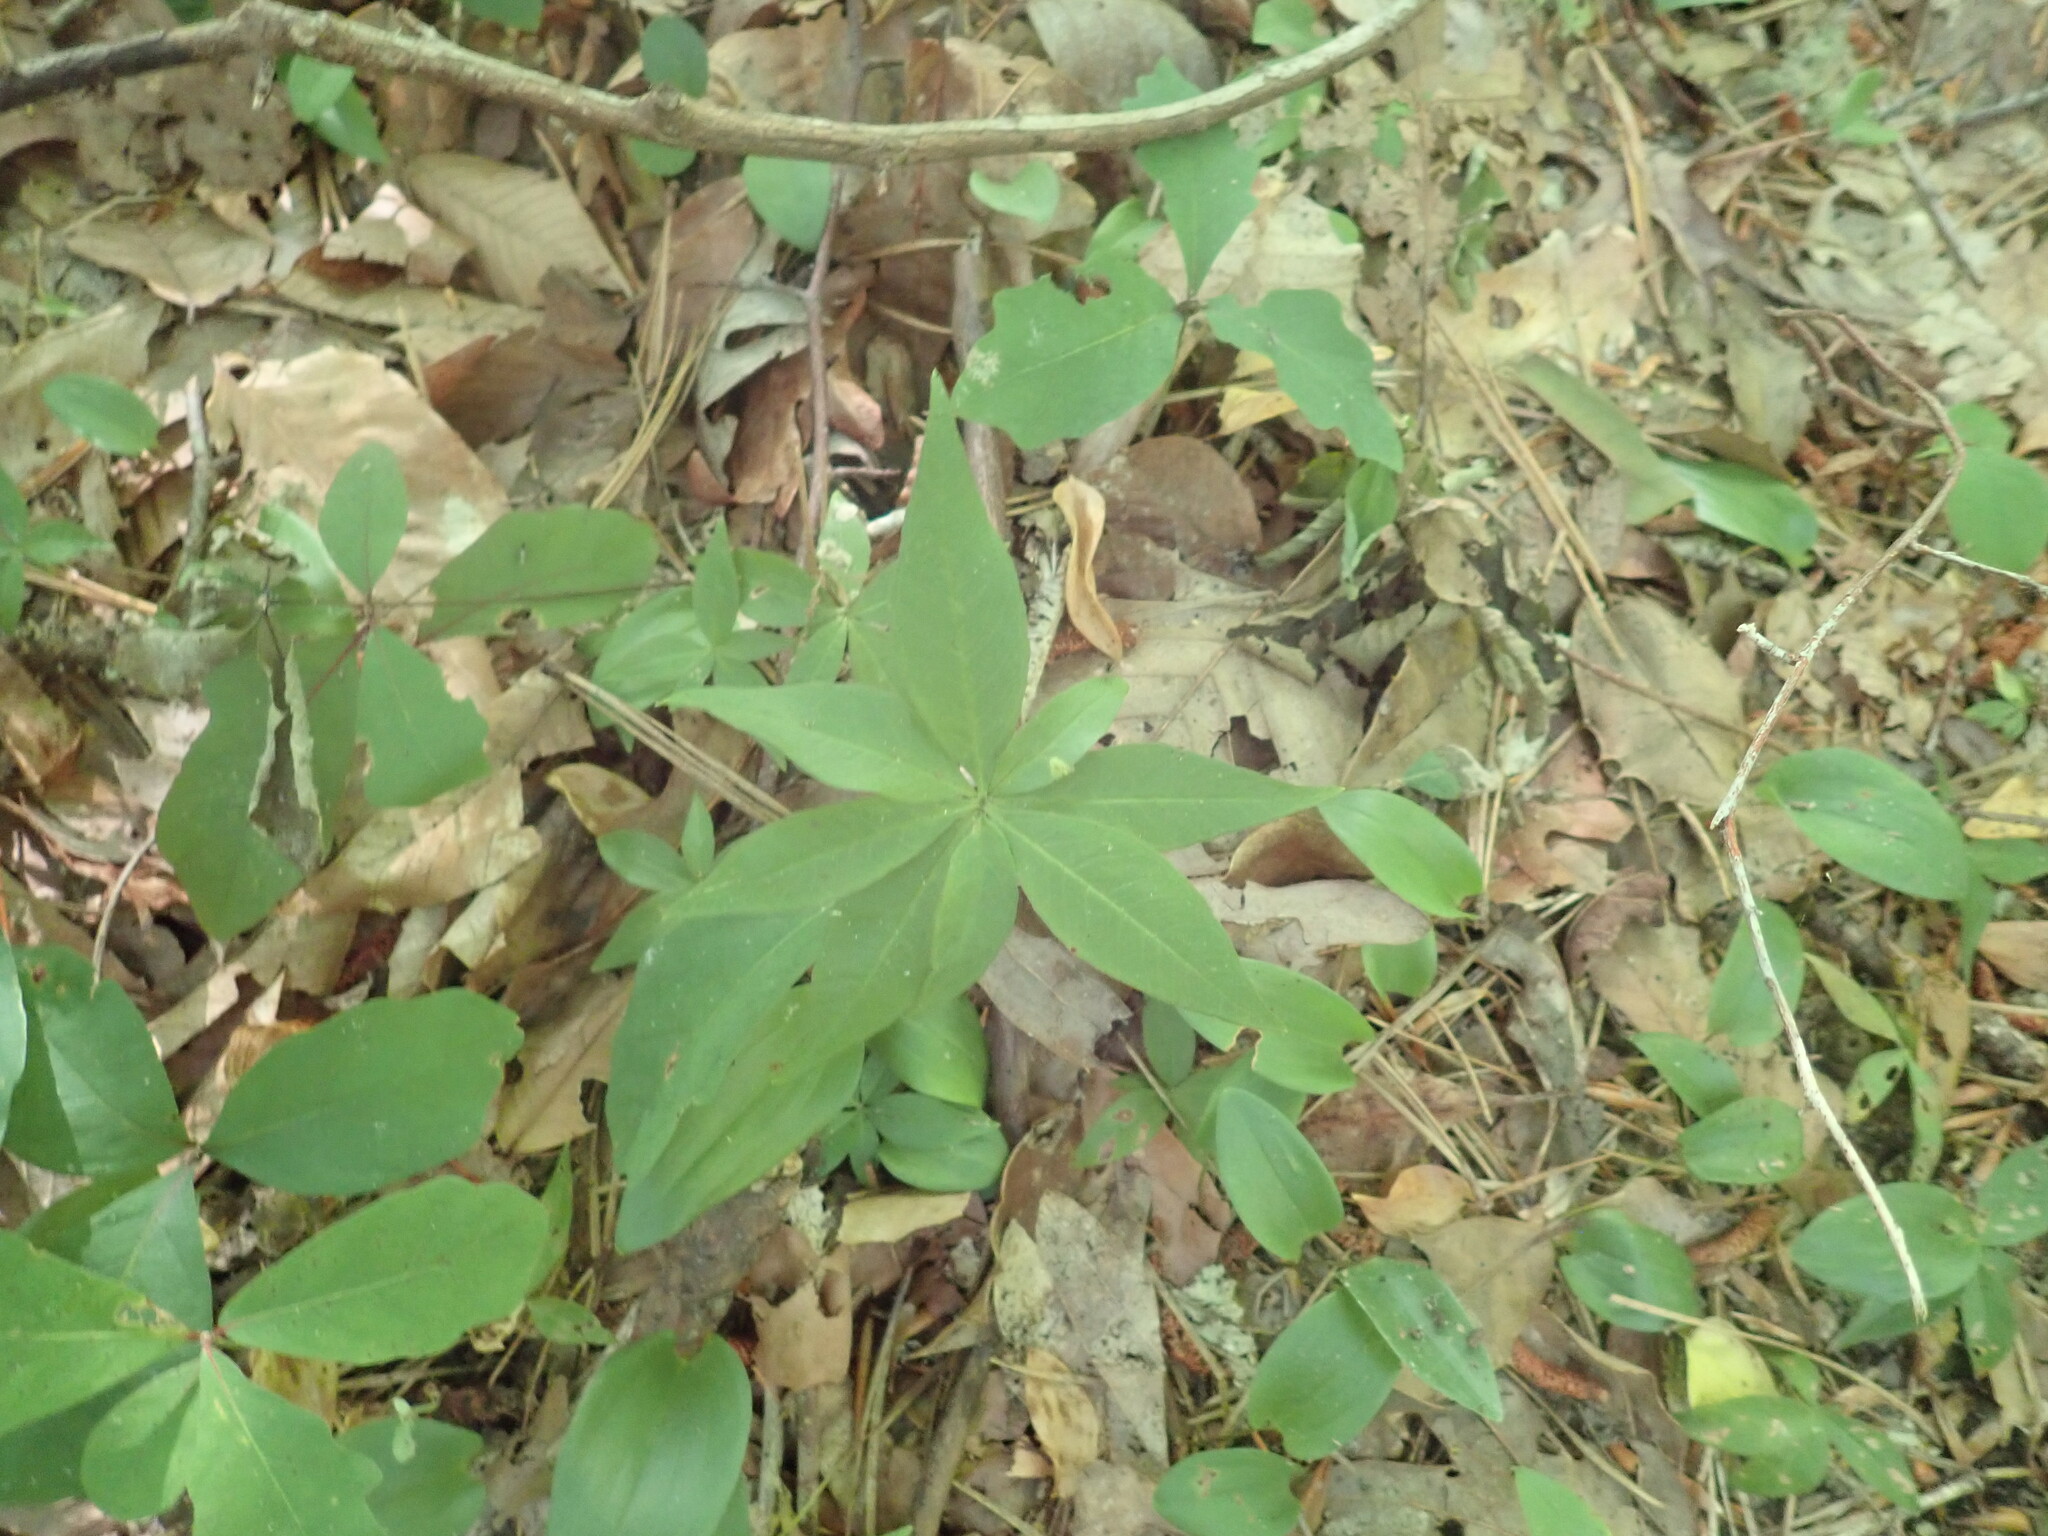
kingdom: Plantae
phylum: Tracheophyta
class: Magnoliopsida
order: Ericales
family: Primulaceae
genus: Lysimachia
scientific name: Lysimachia borealis
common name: American starflower
